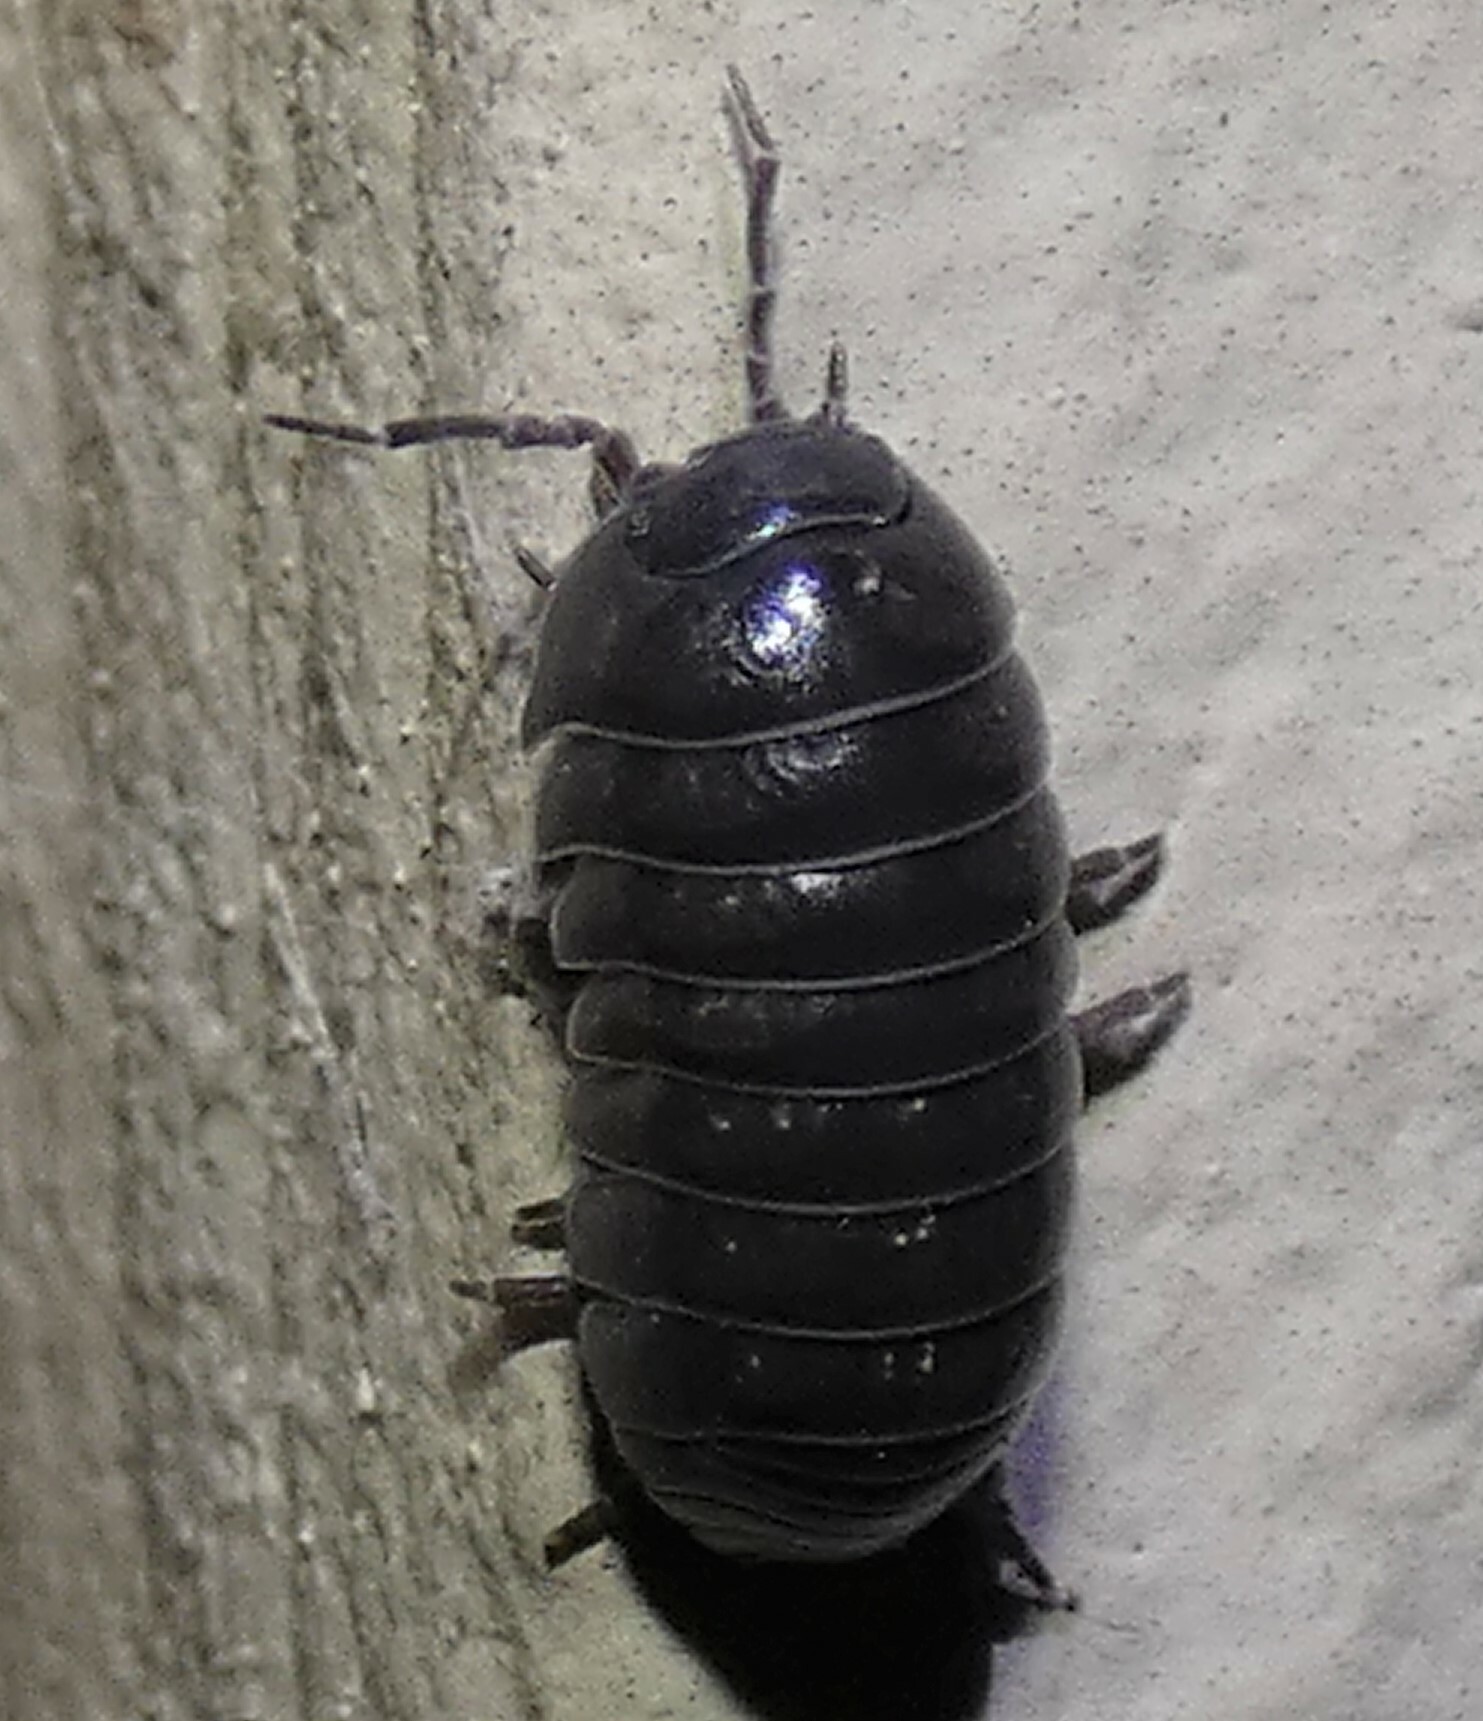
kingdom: Animalia
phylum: Arthropoda
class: Malacostraca
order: Isopoda
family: Armadillidiidae
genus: Armadillidium
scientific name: Armadillidium vulgare
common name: Common pill woodlouse
